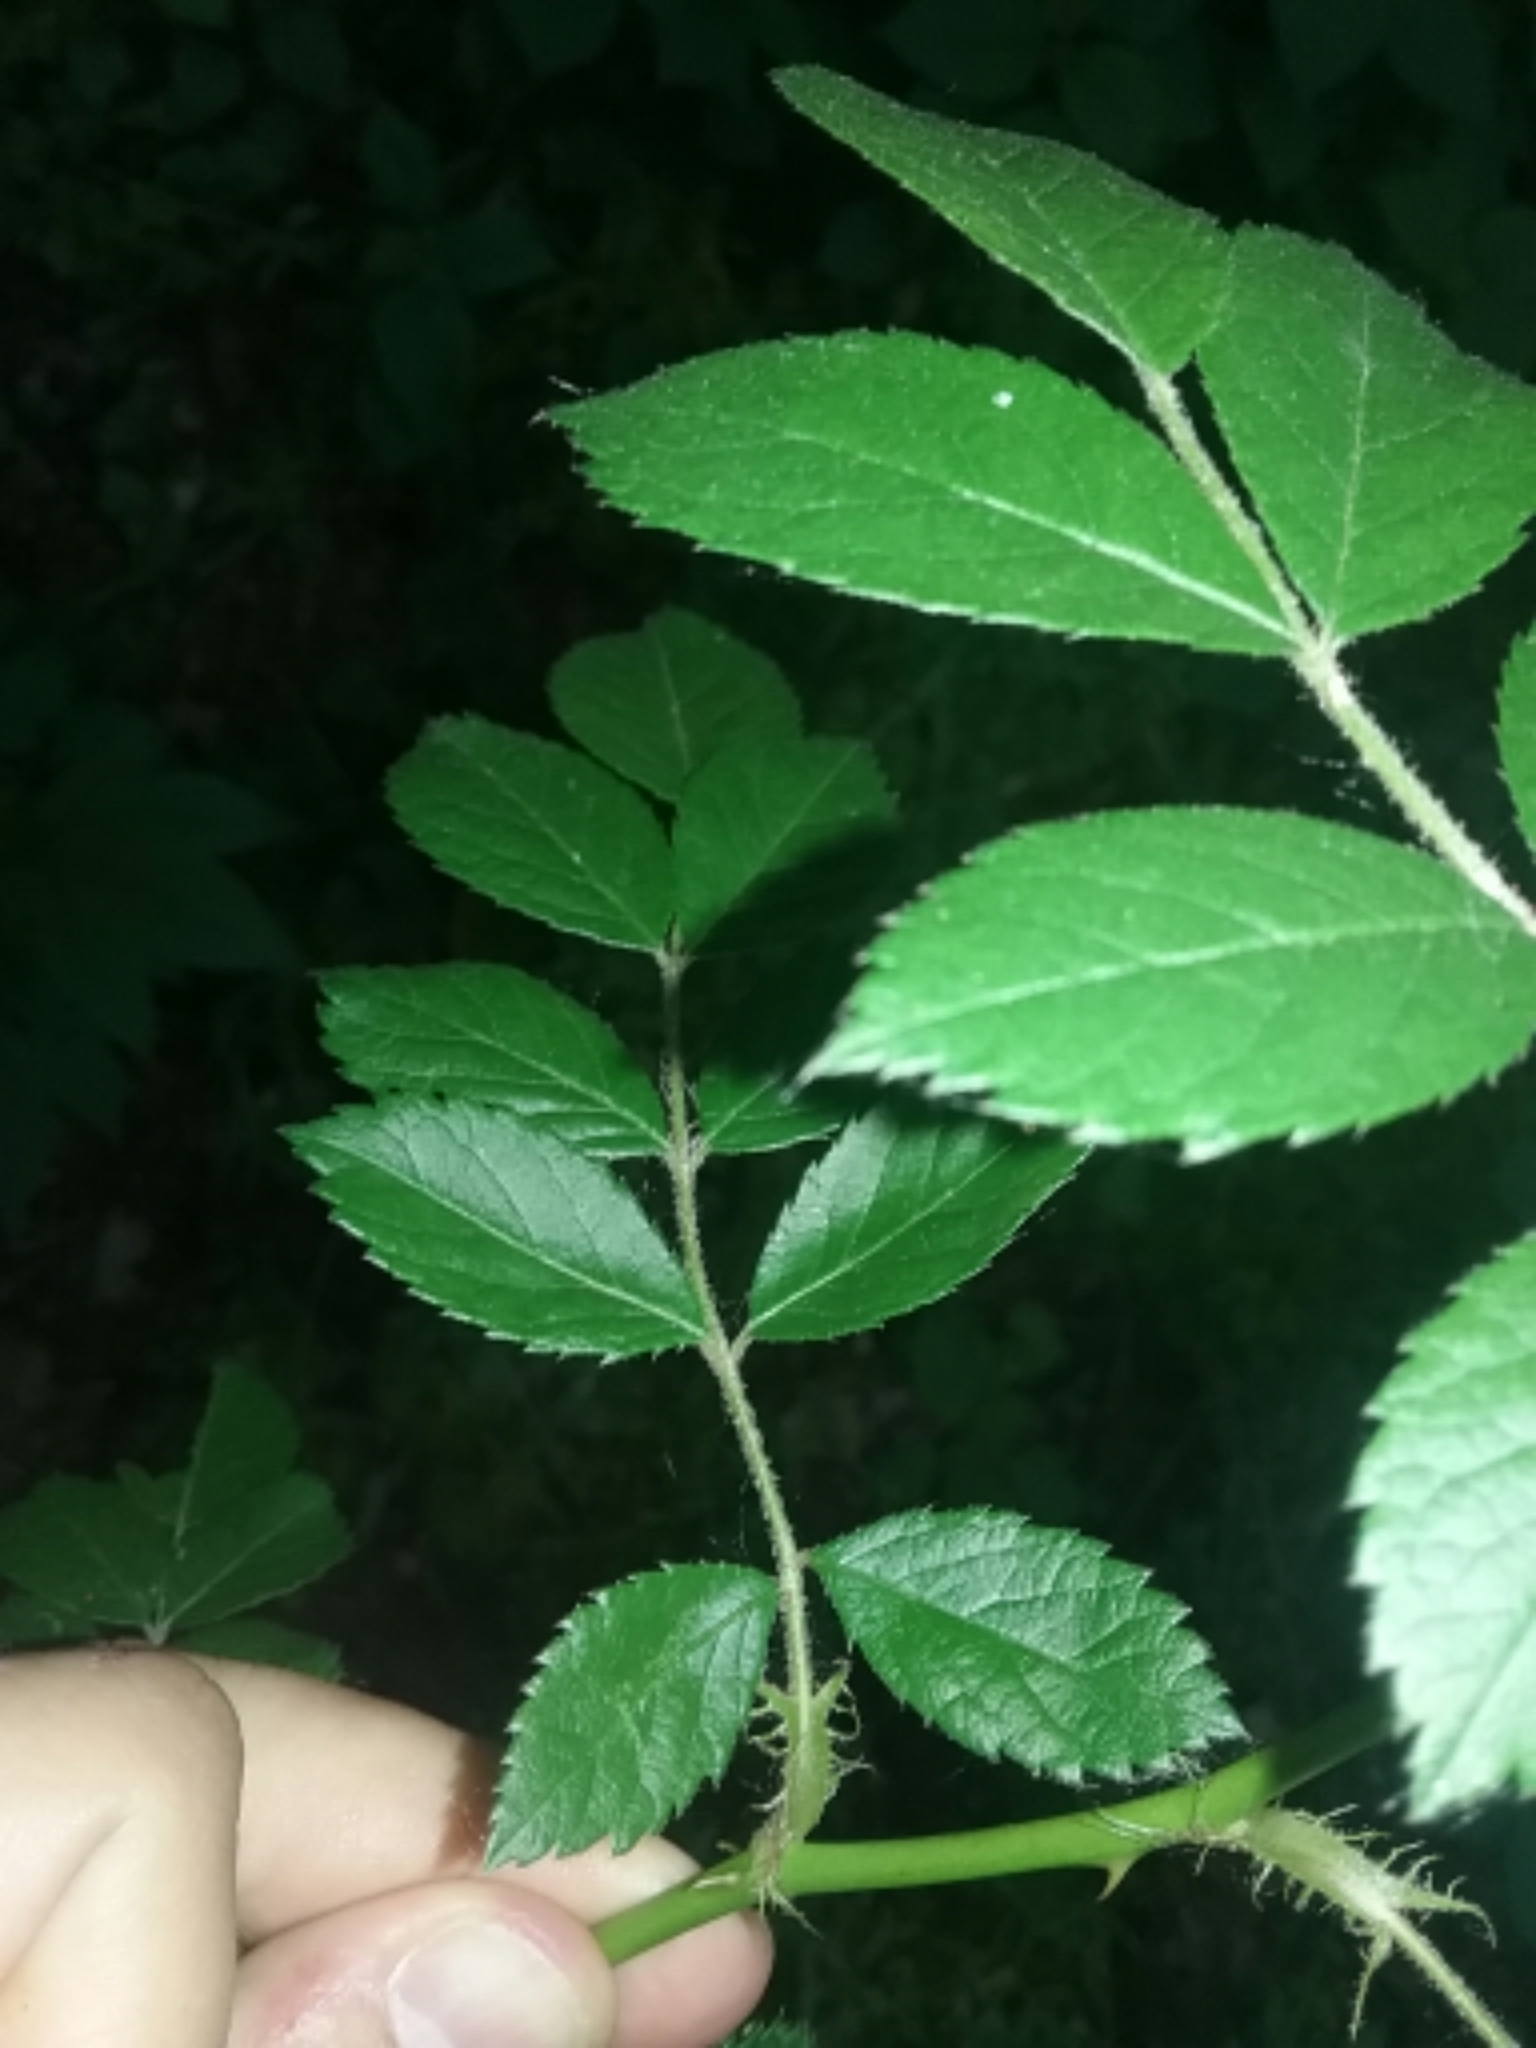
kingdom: Plantae
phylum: Tracheophyta
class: Magnoliopsida
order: Rosales
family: Rosaceae
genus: Rosa
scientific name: Rosa multiflora
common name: Multiflora rose
